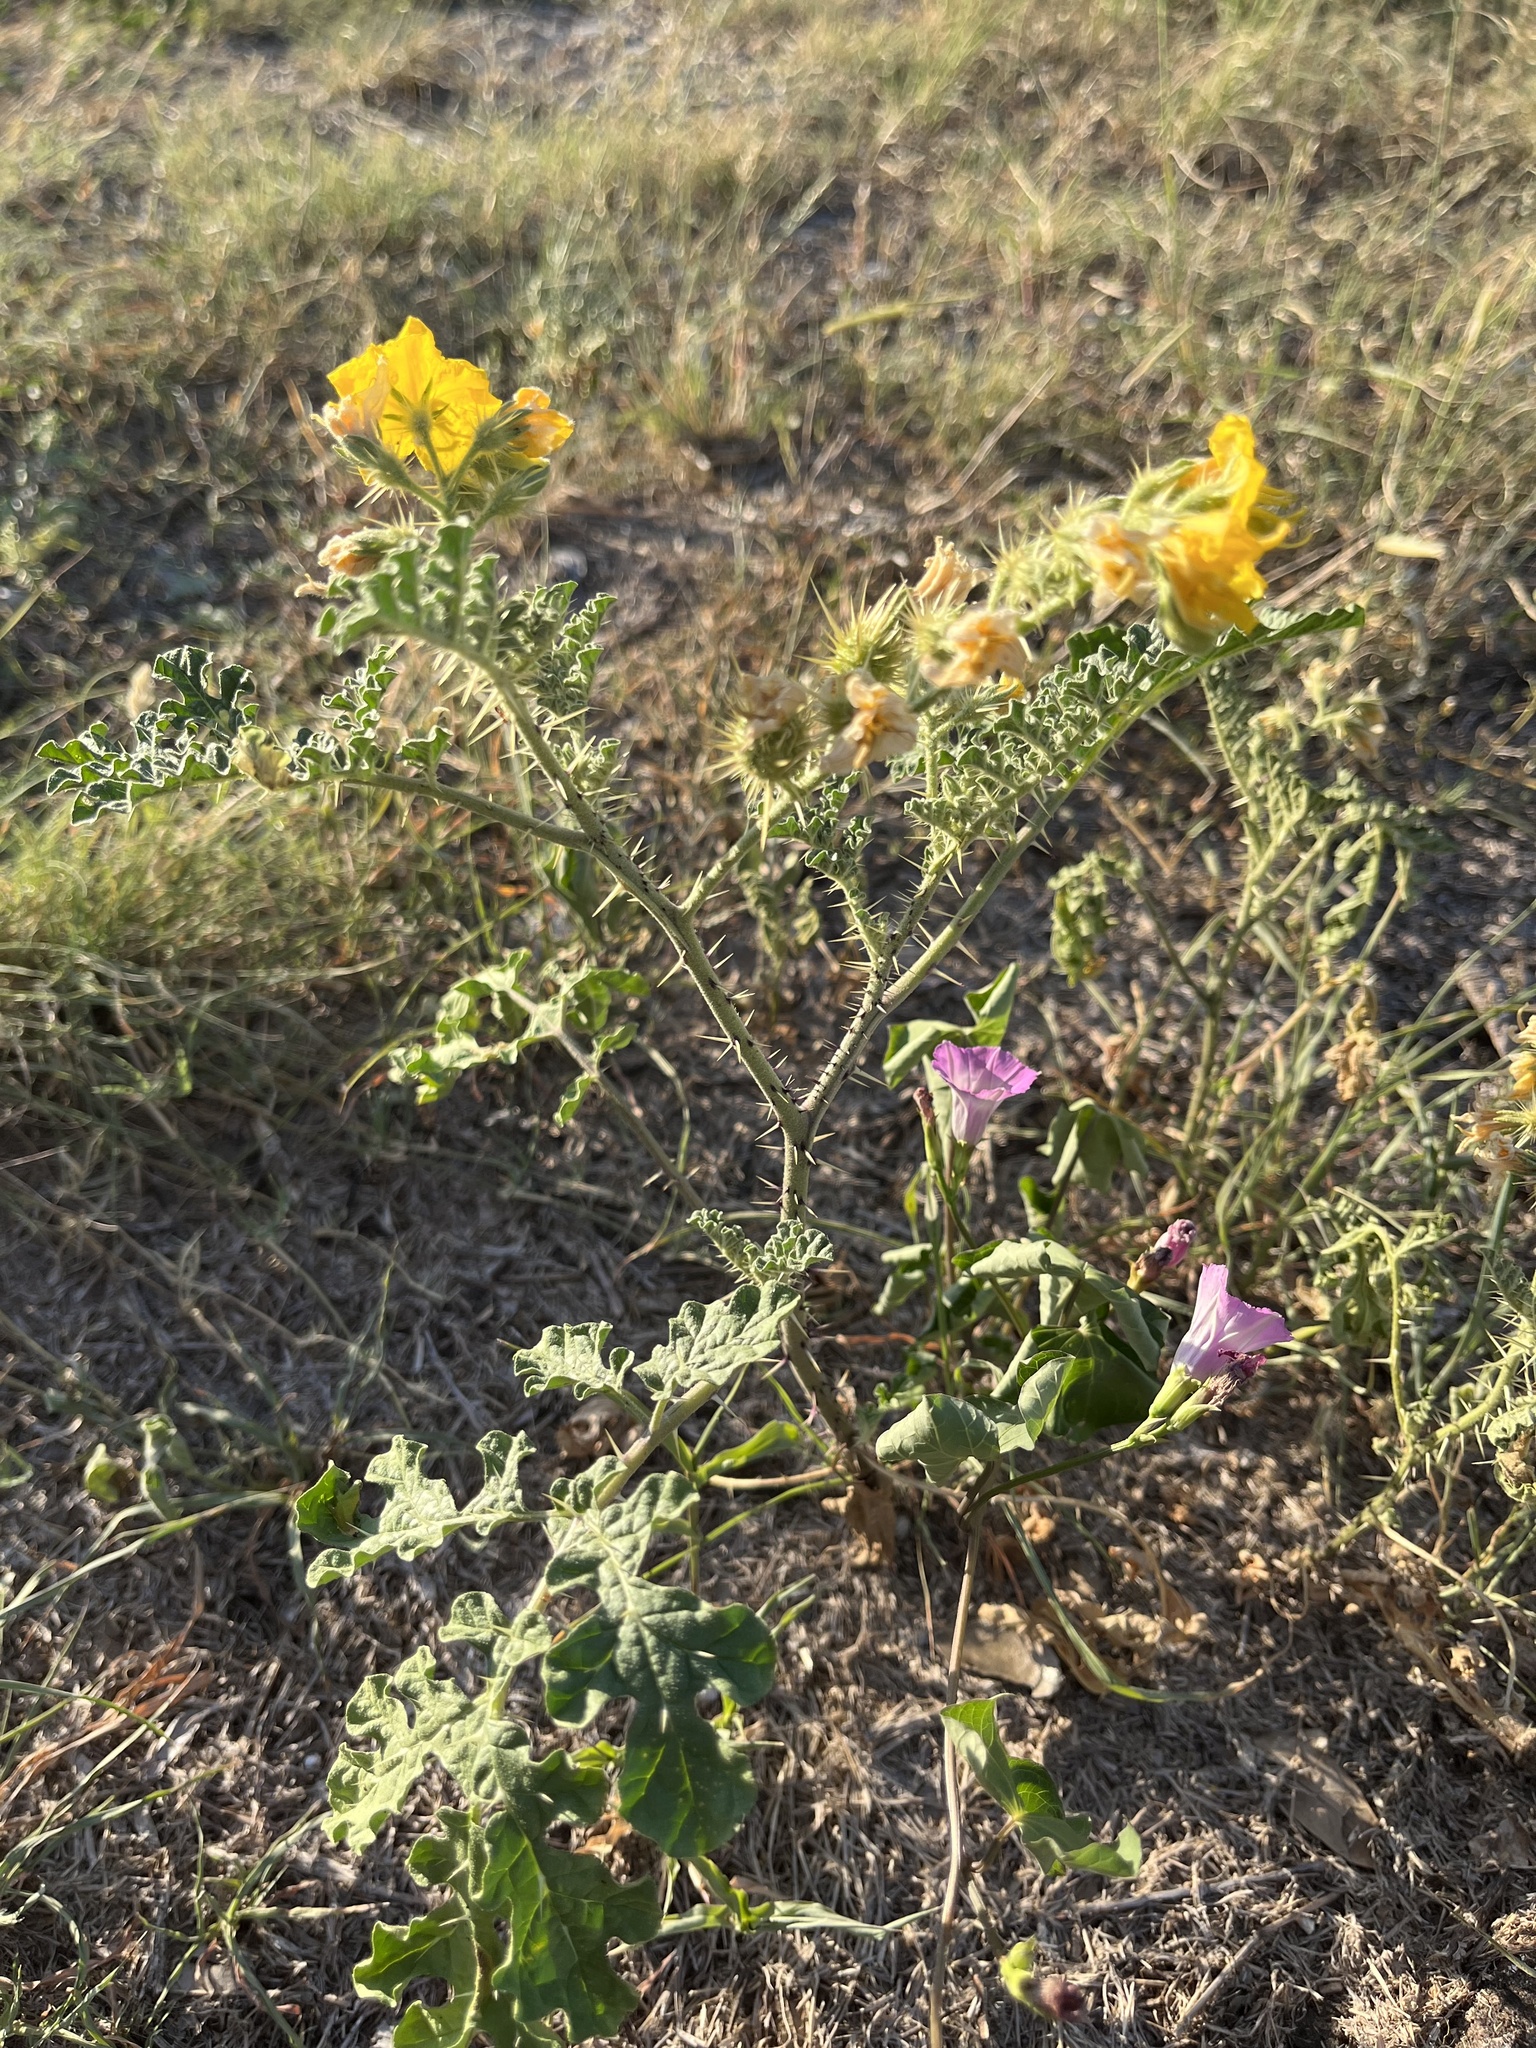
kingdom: Plantae
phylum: Tracheophyta
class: Magnoliopsida
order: Solanales
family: Solanaceae
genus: Solanum
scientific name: Solanum angustifolium
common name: Buffalobur nightshade
